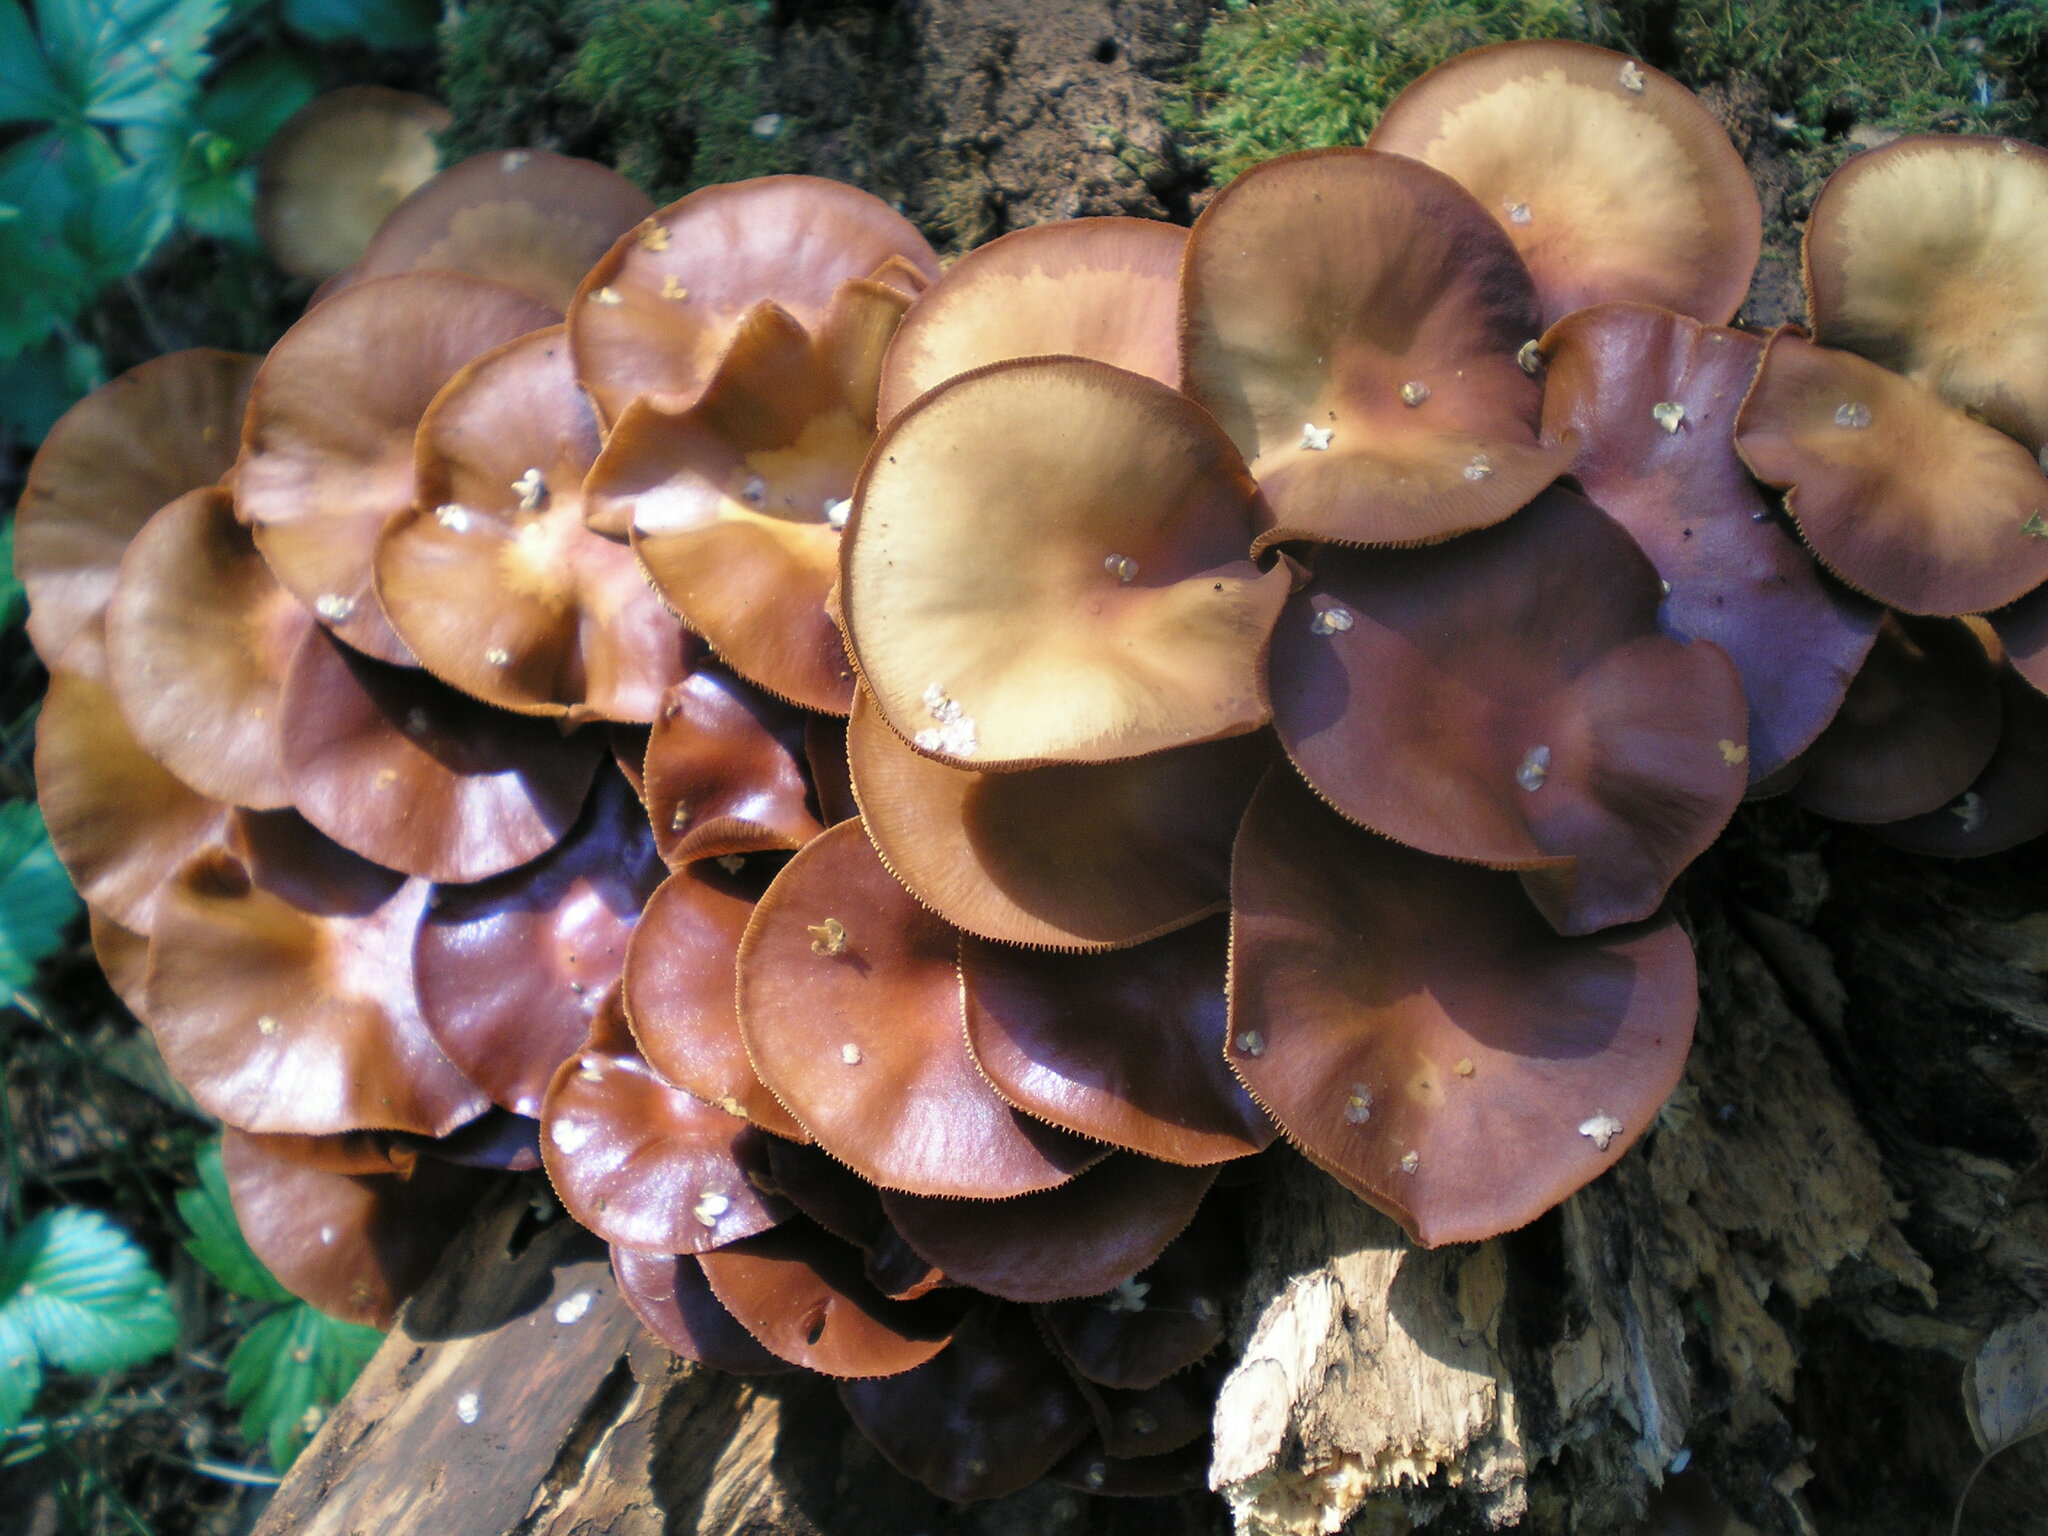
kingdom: Fungi
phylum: Basidiomycota
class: Agaricomycetes
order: Agaricales
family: Strophariaceae
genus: Kuehneromyces
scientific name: Kuehneromyces mutabilis
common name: Sheathed woodtuft
